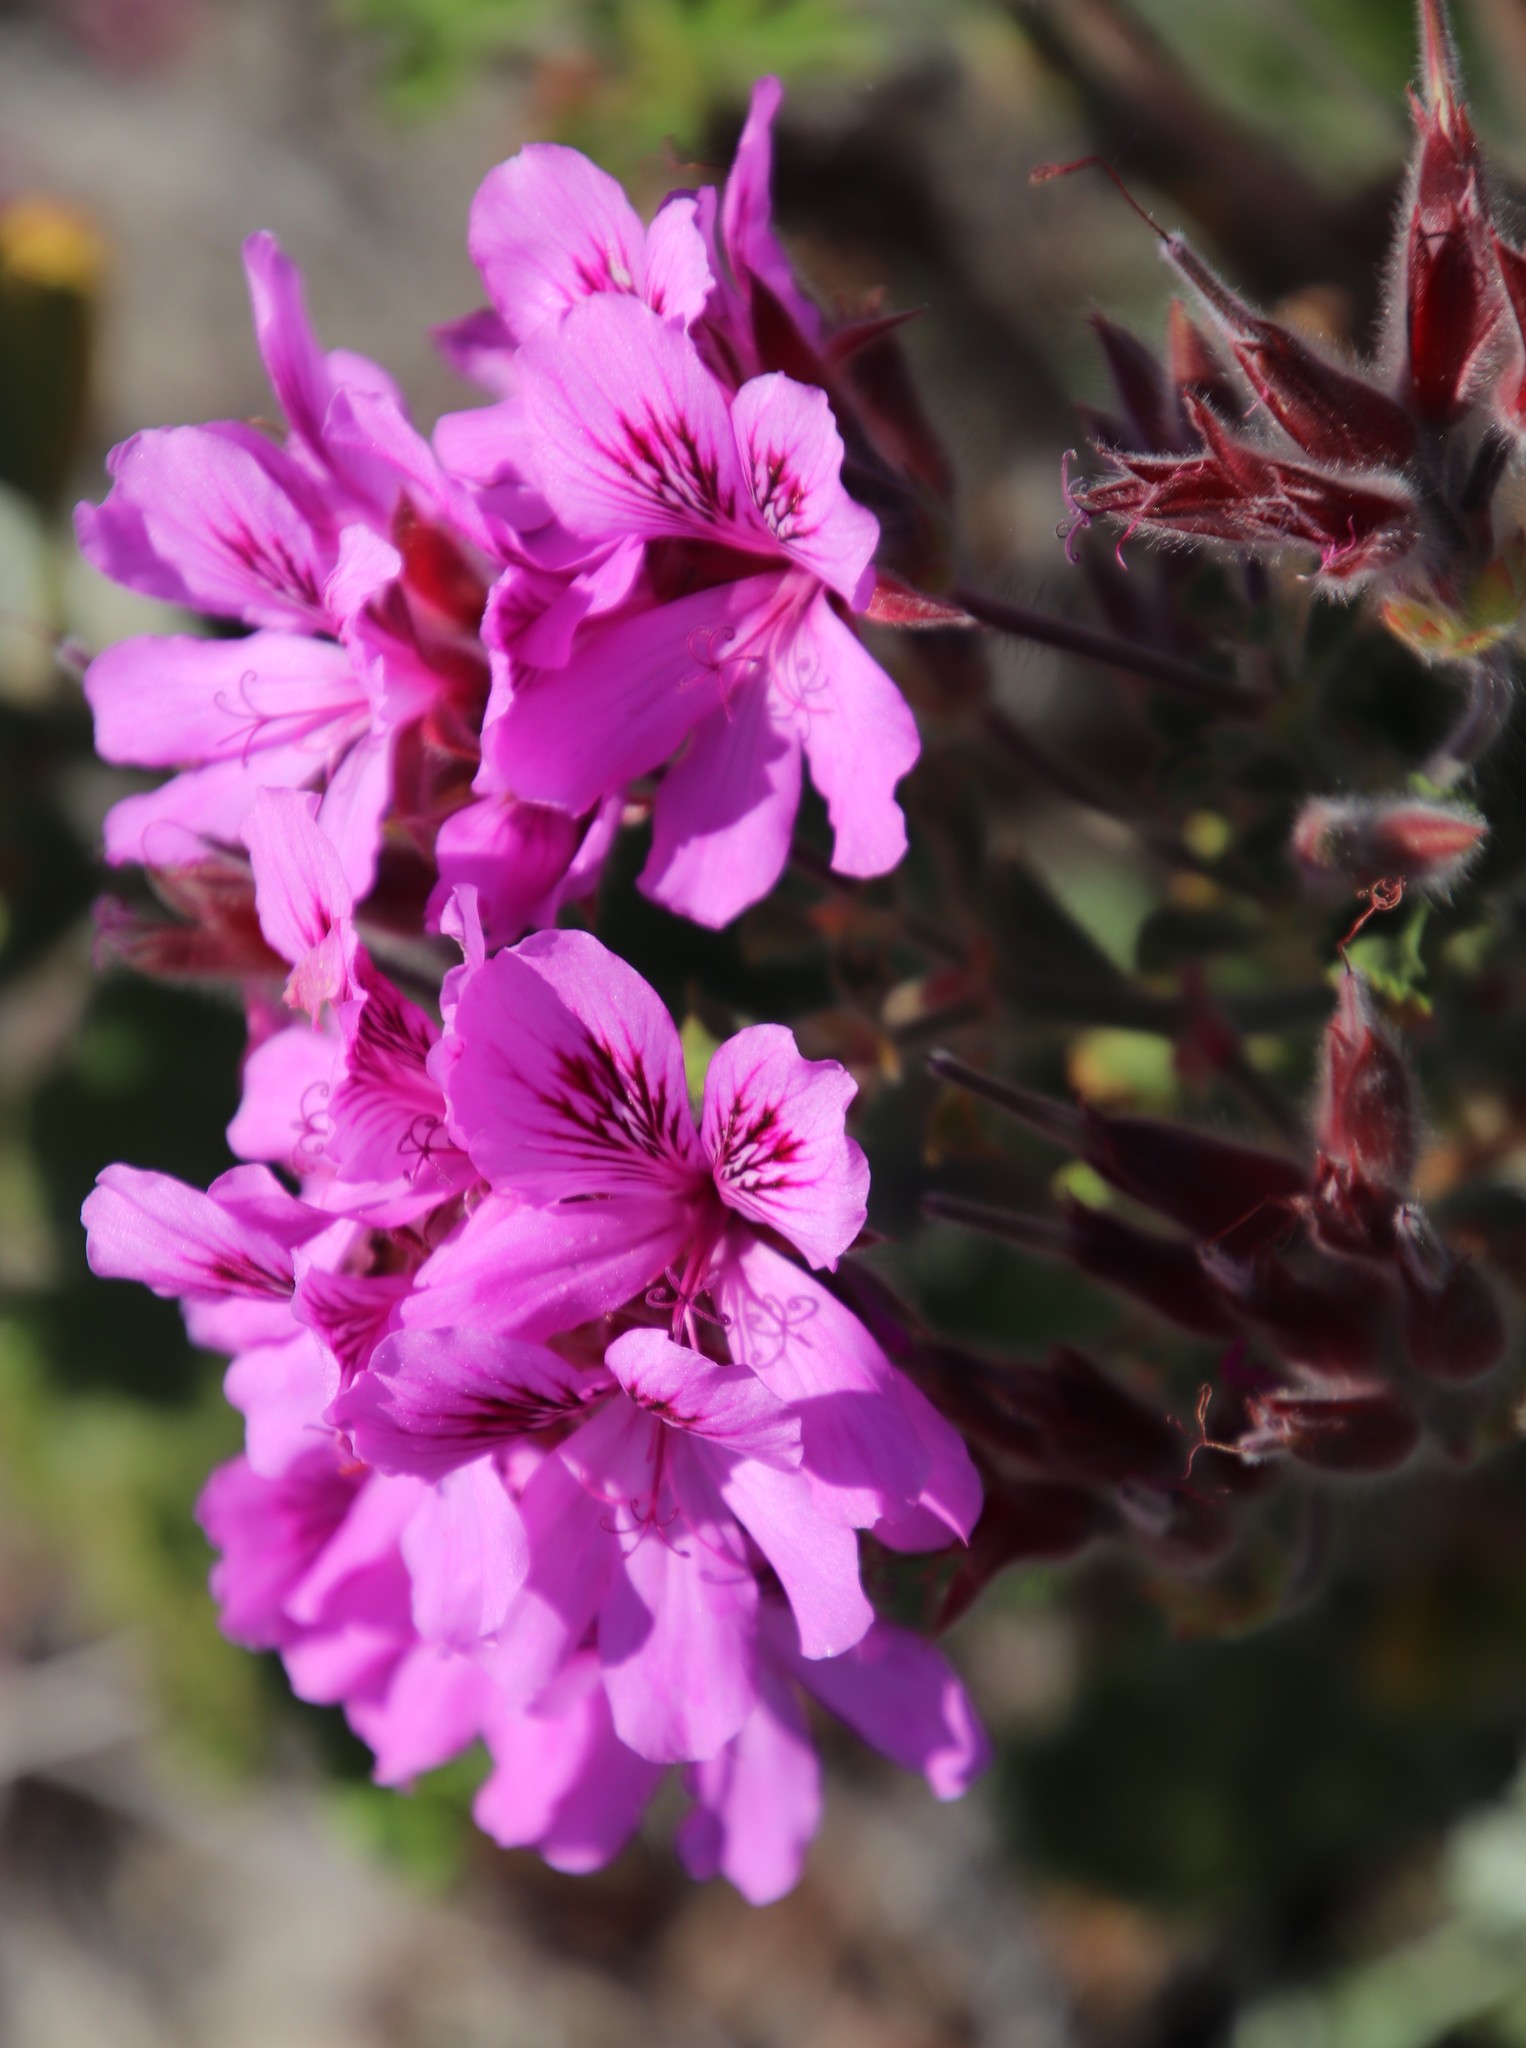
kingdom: Plantae
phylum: Tracheophyta
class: Magnoliopsida
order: Geraniales
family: Geraniaceae
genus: Pelargonium
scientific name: Pelargonium cucullatum
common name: Tree pelargonium
